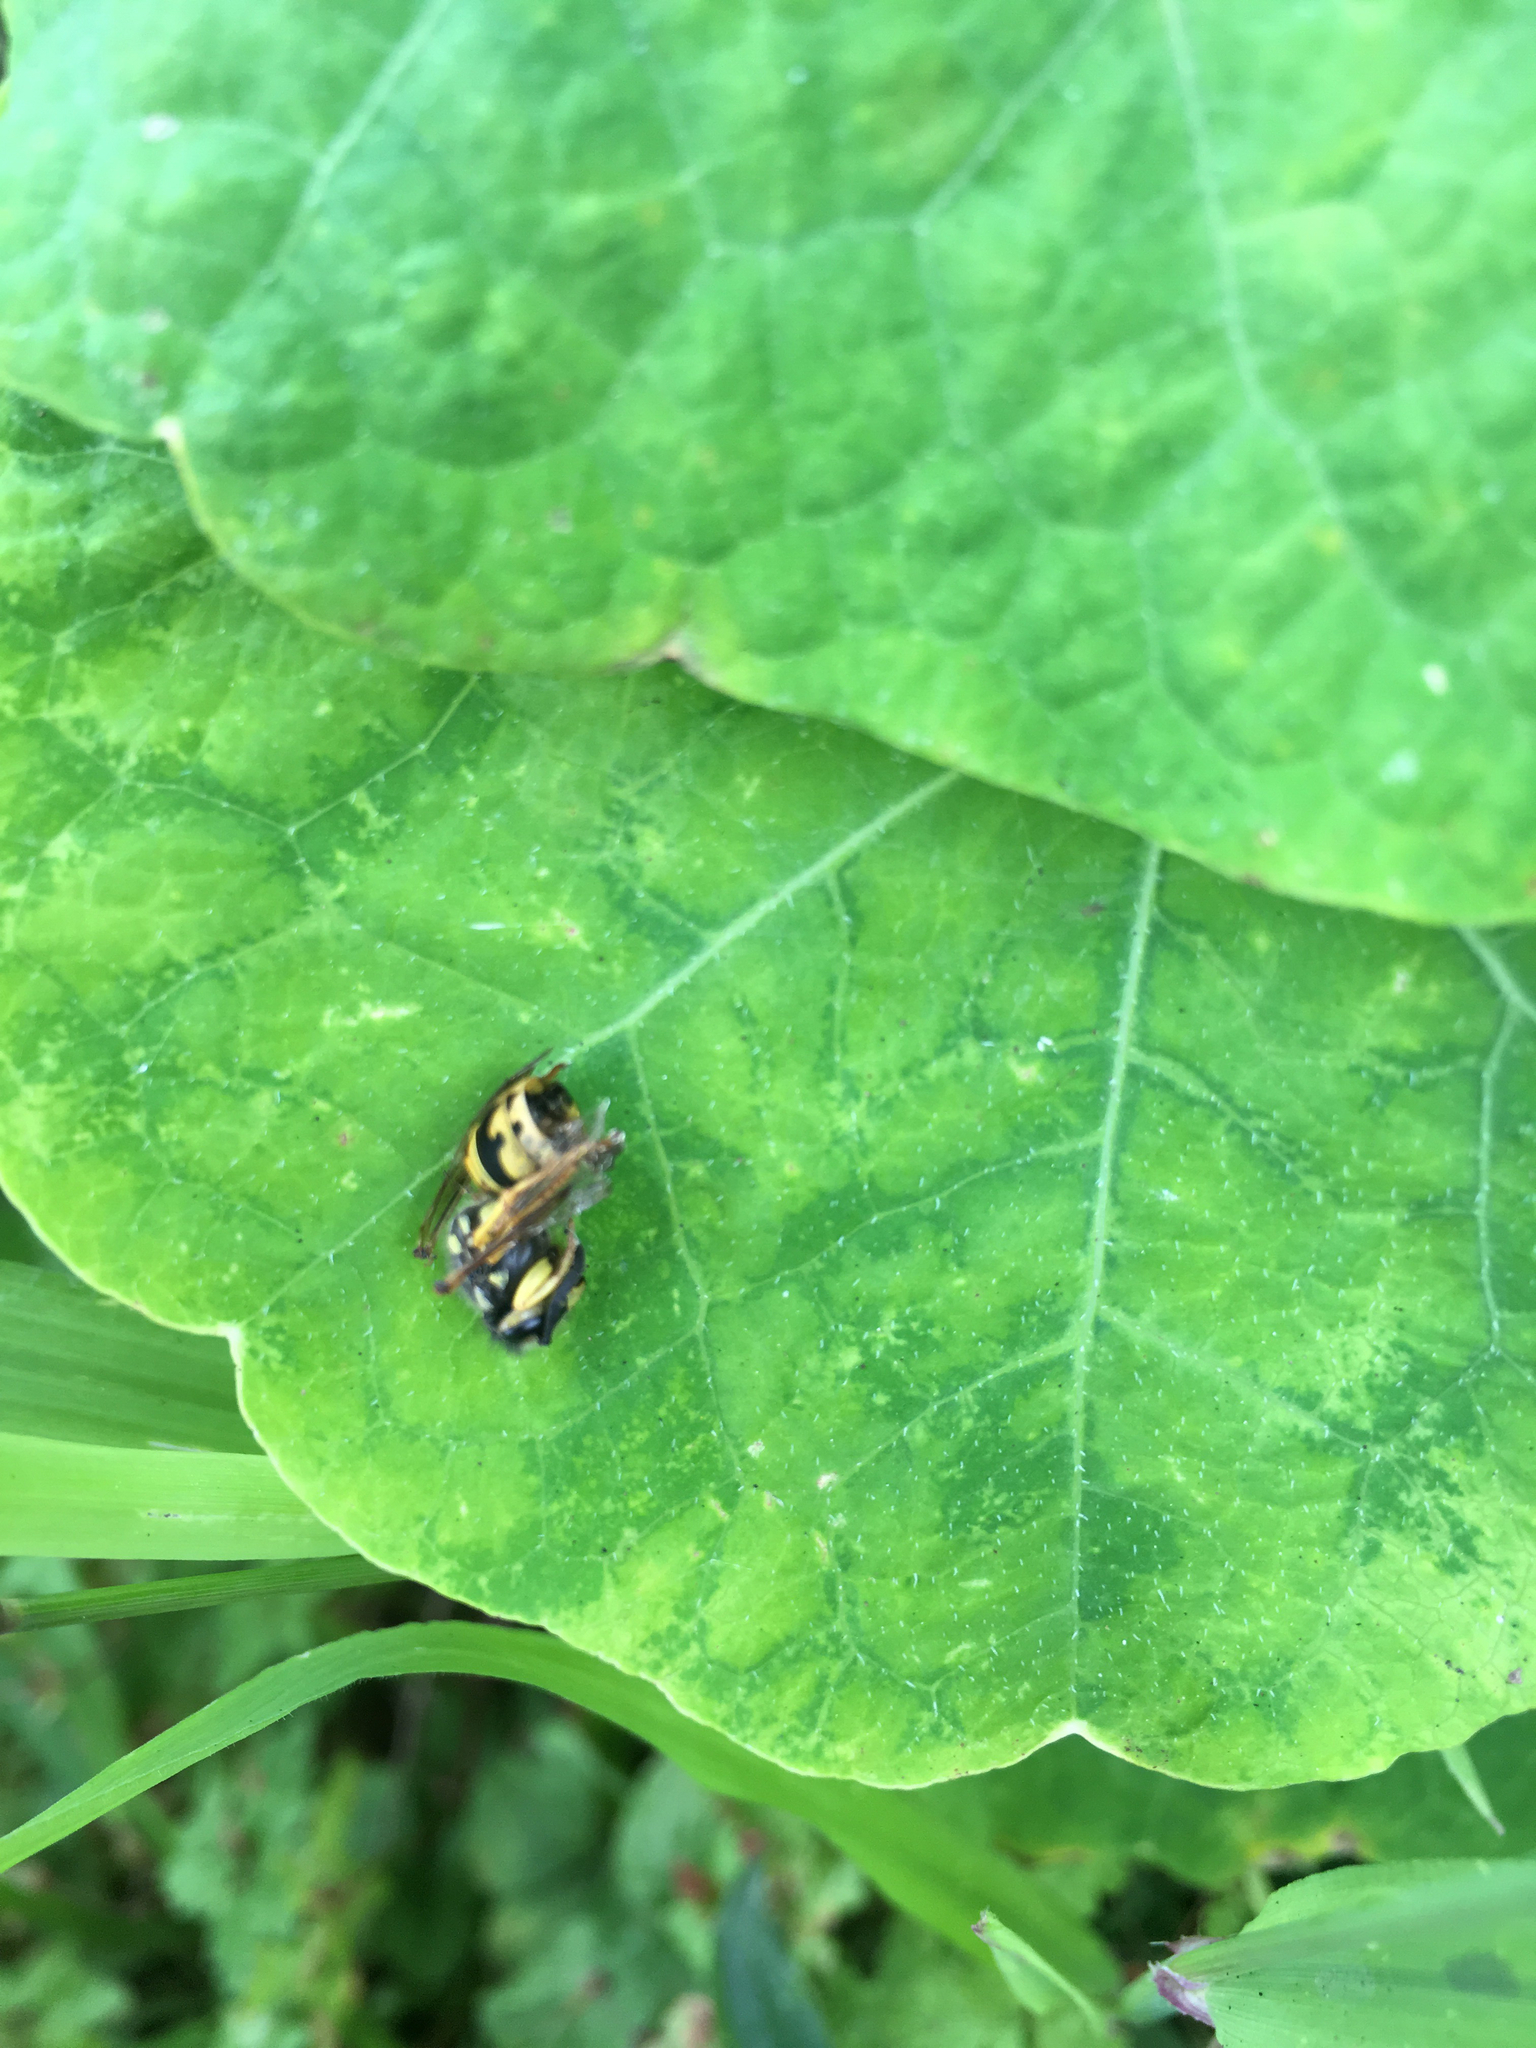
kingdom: Animalia
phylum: Arthropoda
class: Insecta
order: Hymenoptera
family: Vespidae
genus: Vespula
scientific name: Vespula pensylvanica
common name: Western yellowjacket
